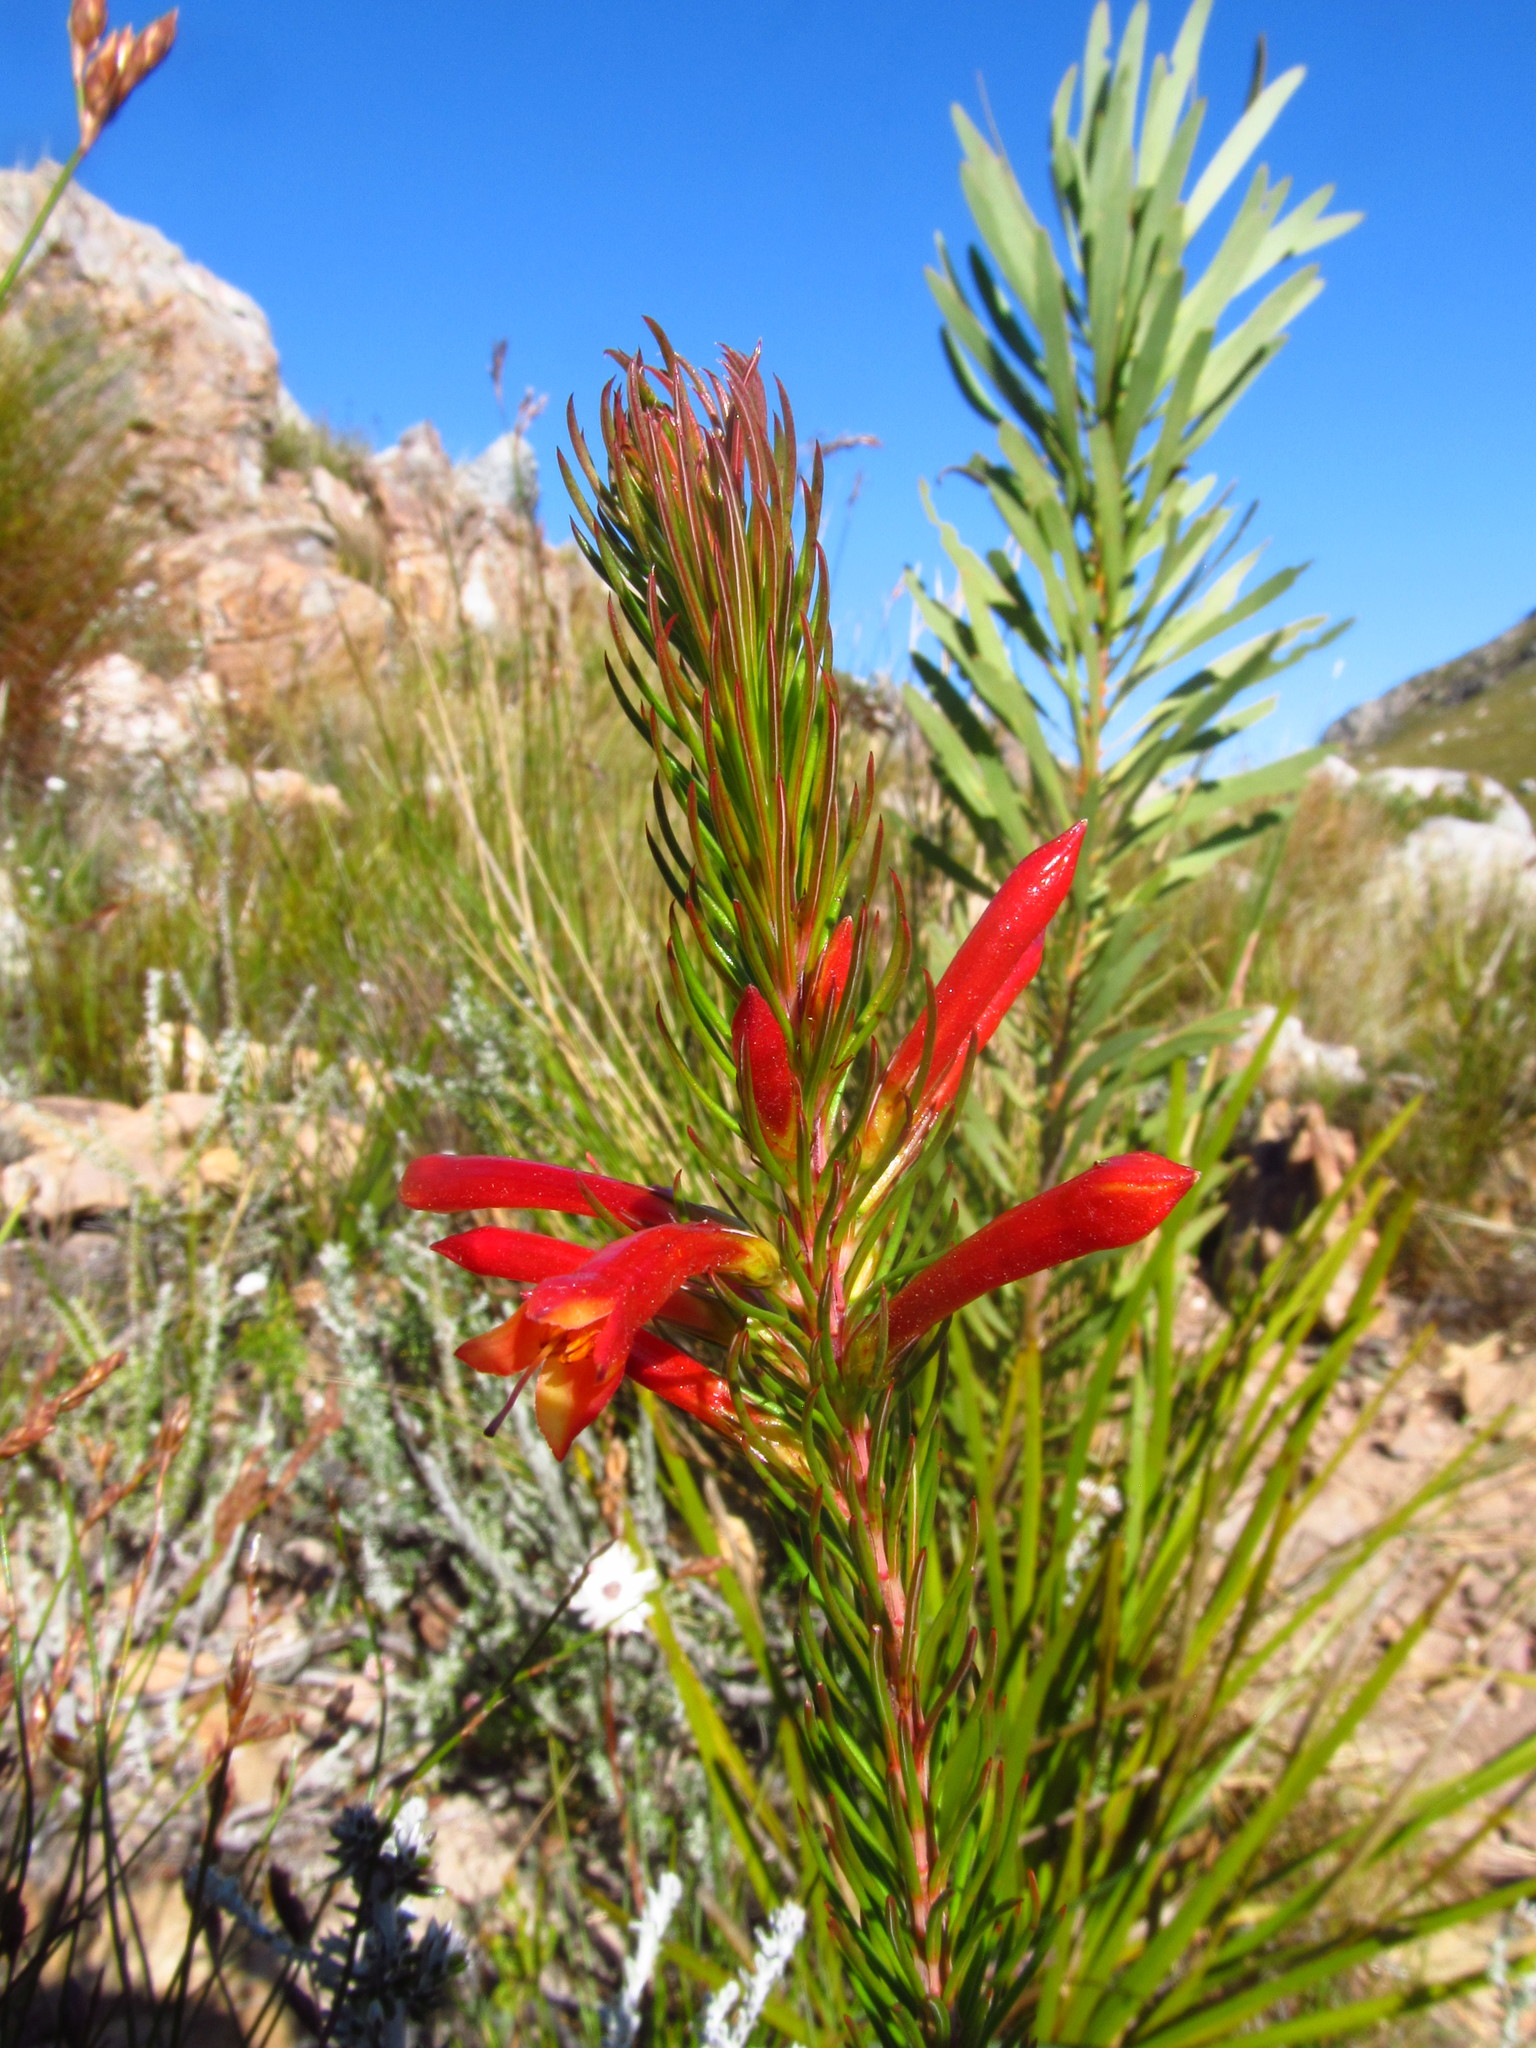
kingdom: Plantae
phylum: Tracheophyta
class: Magnoliopsida
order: Ericales
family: Ericaceae
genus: Erica
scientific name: Erica grandiflora
